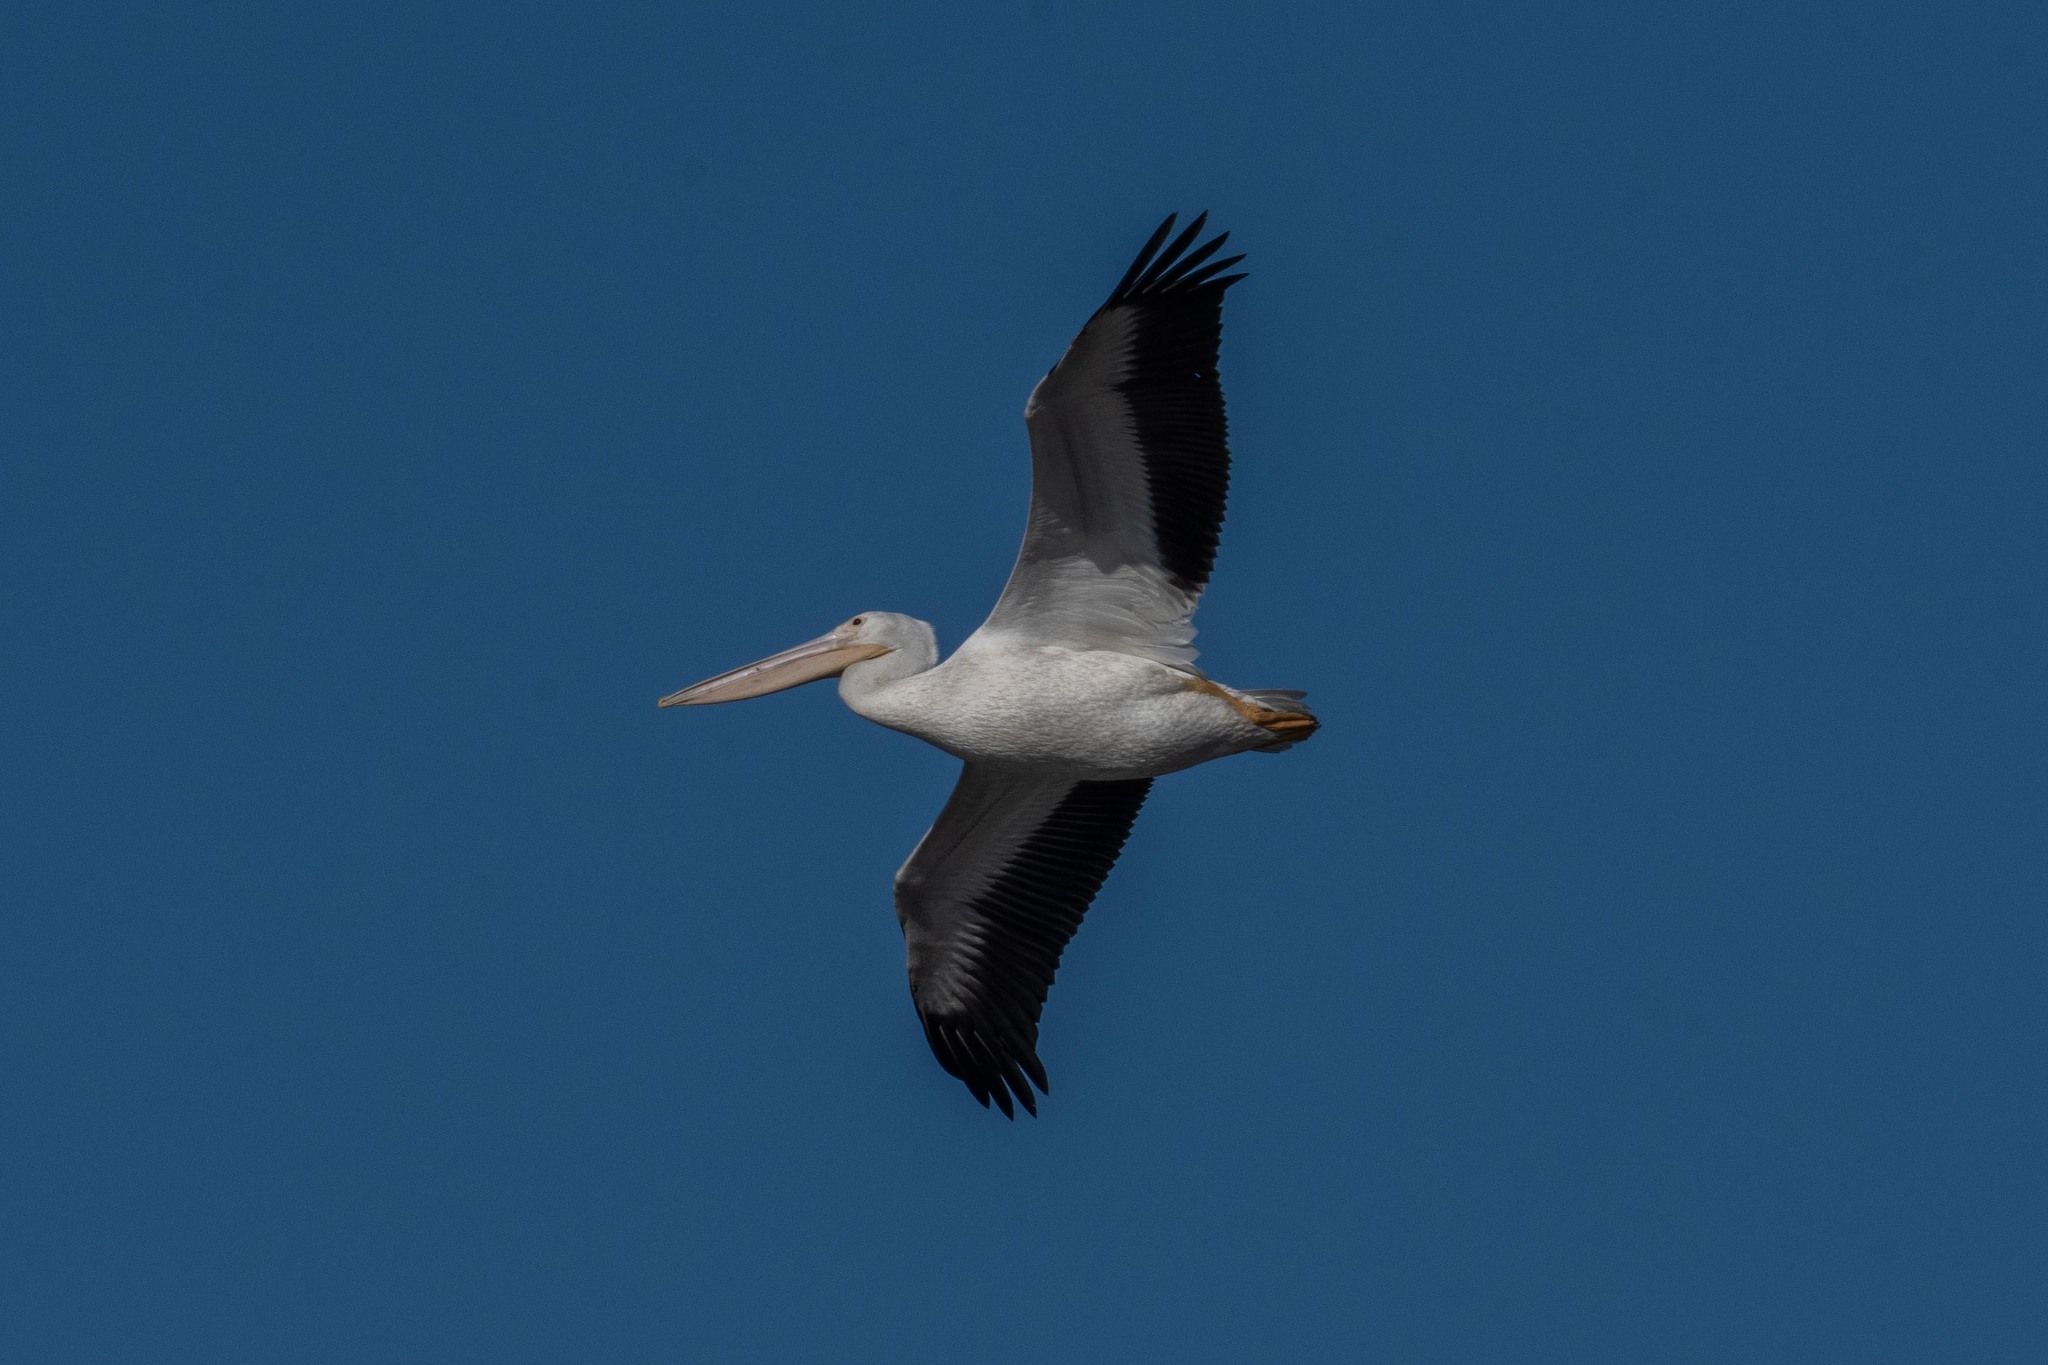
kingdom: Animalia
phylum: Chordata
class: Aves
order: Pelecaniformes
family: Pelecanidae
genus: Pelecanus
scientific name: Pelecanus erythrorhynchos
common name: American white pelican
